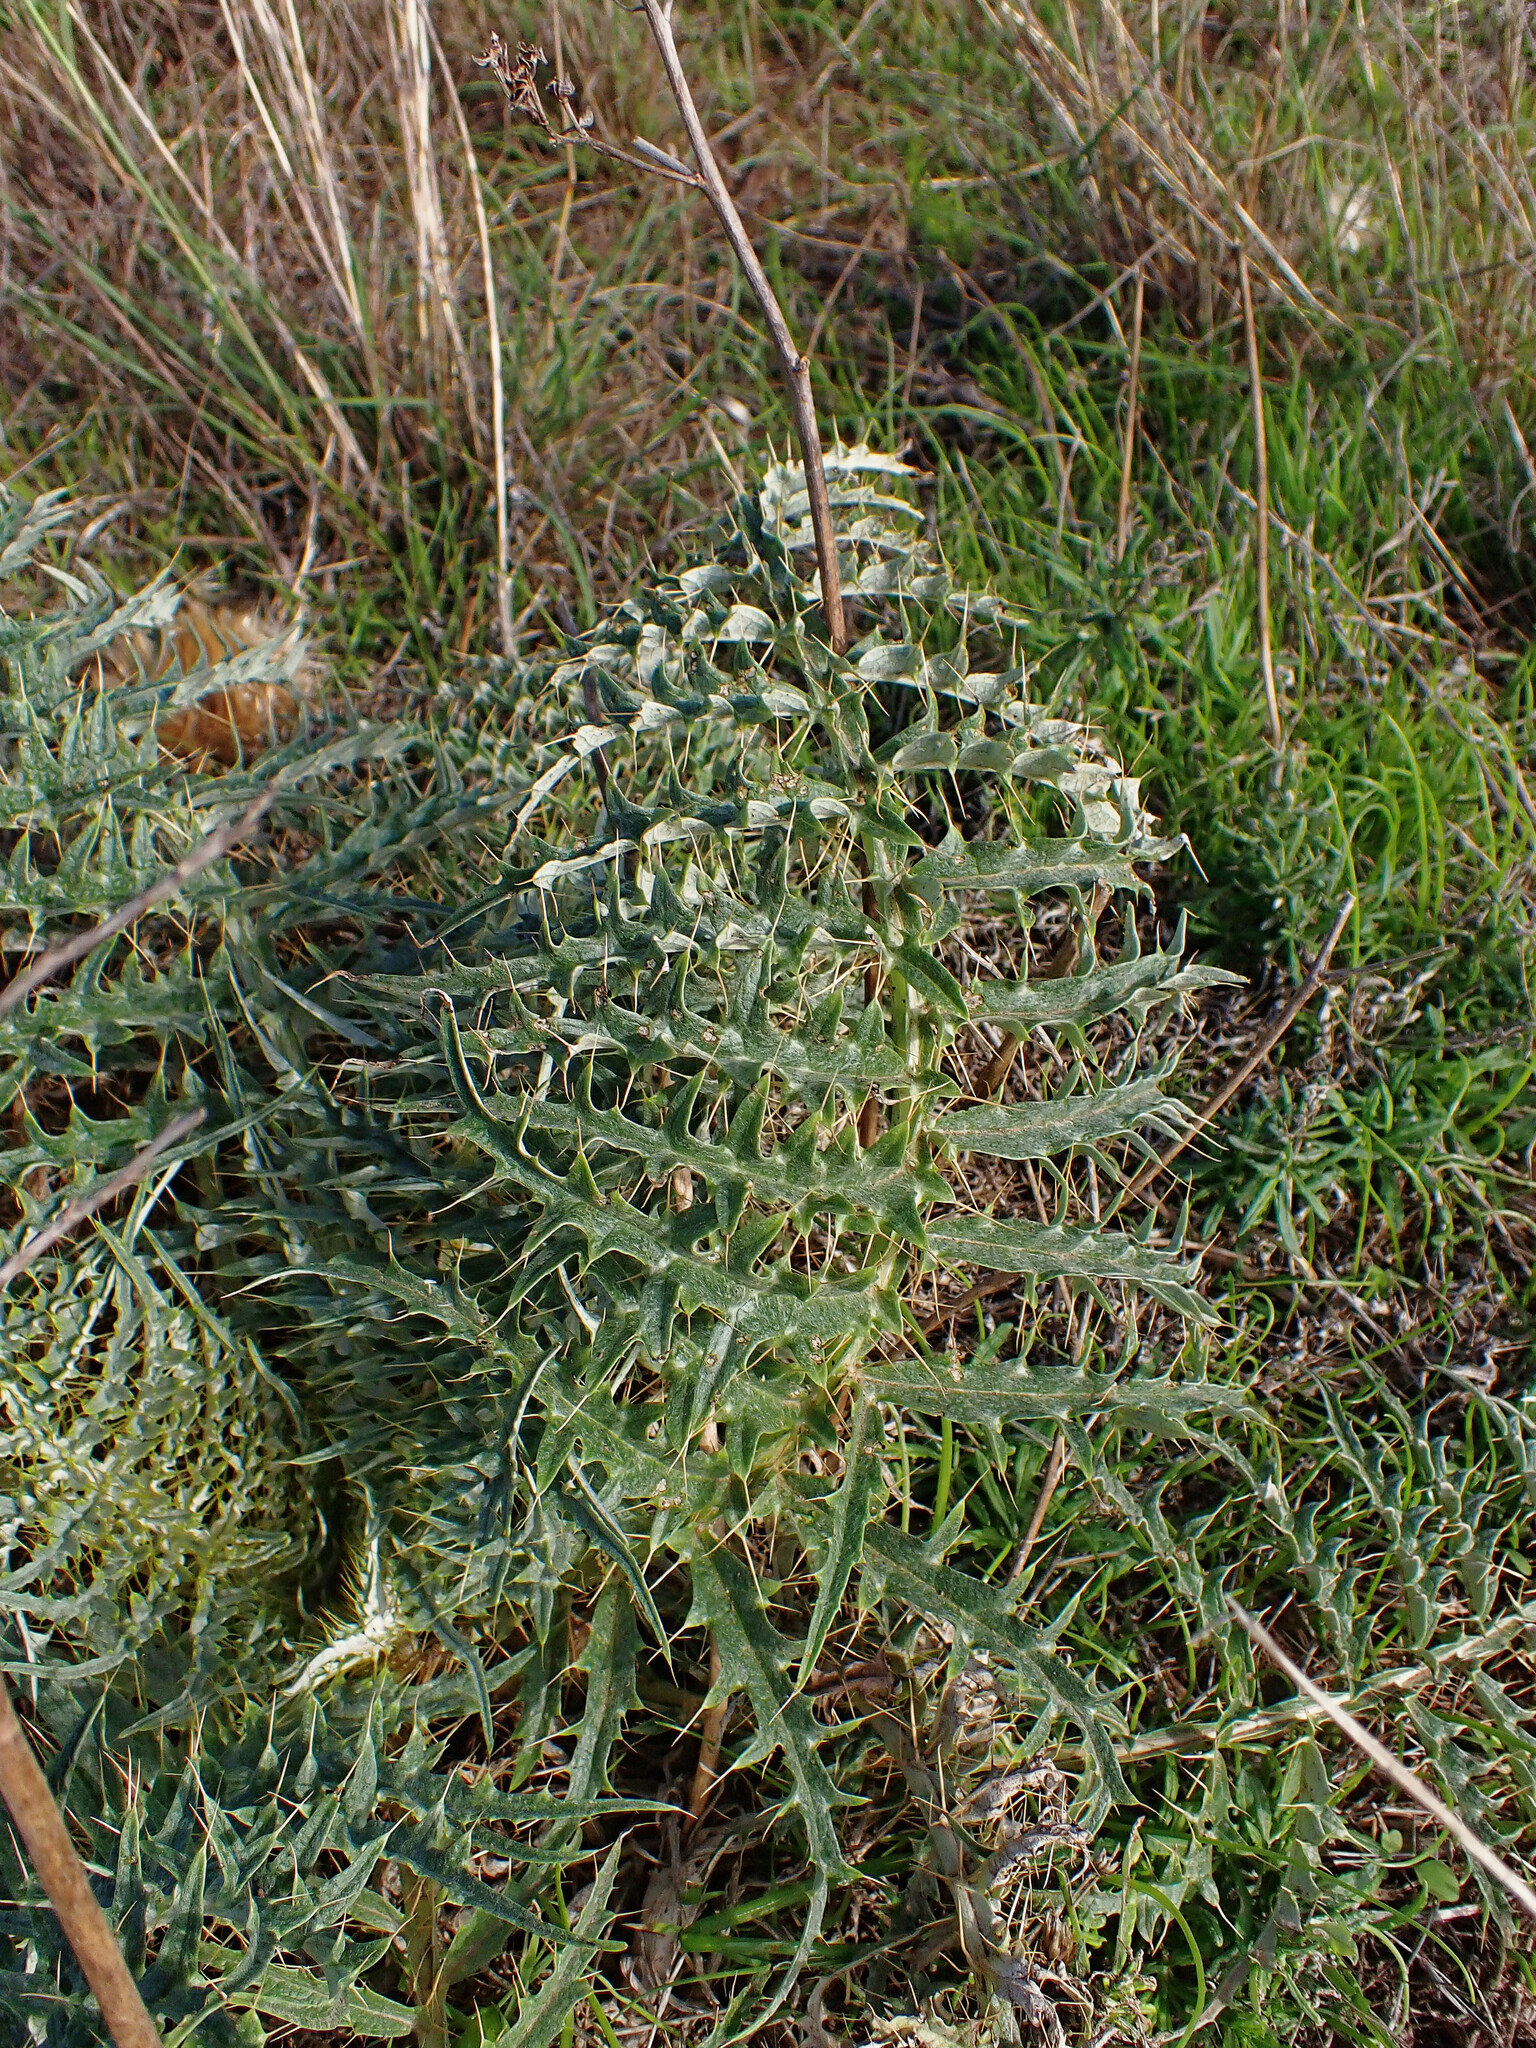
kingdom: Plantae
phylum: Tracheophyta
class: Magnoliopsida
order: Asterales
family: Asteraceae
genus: Cynara
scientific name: Cynara cardunculus
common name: Globe artichoke
